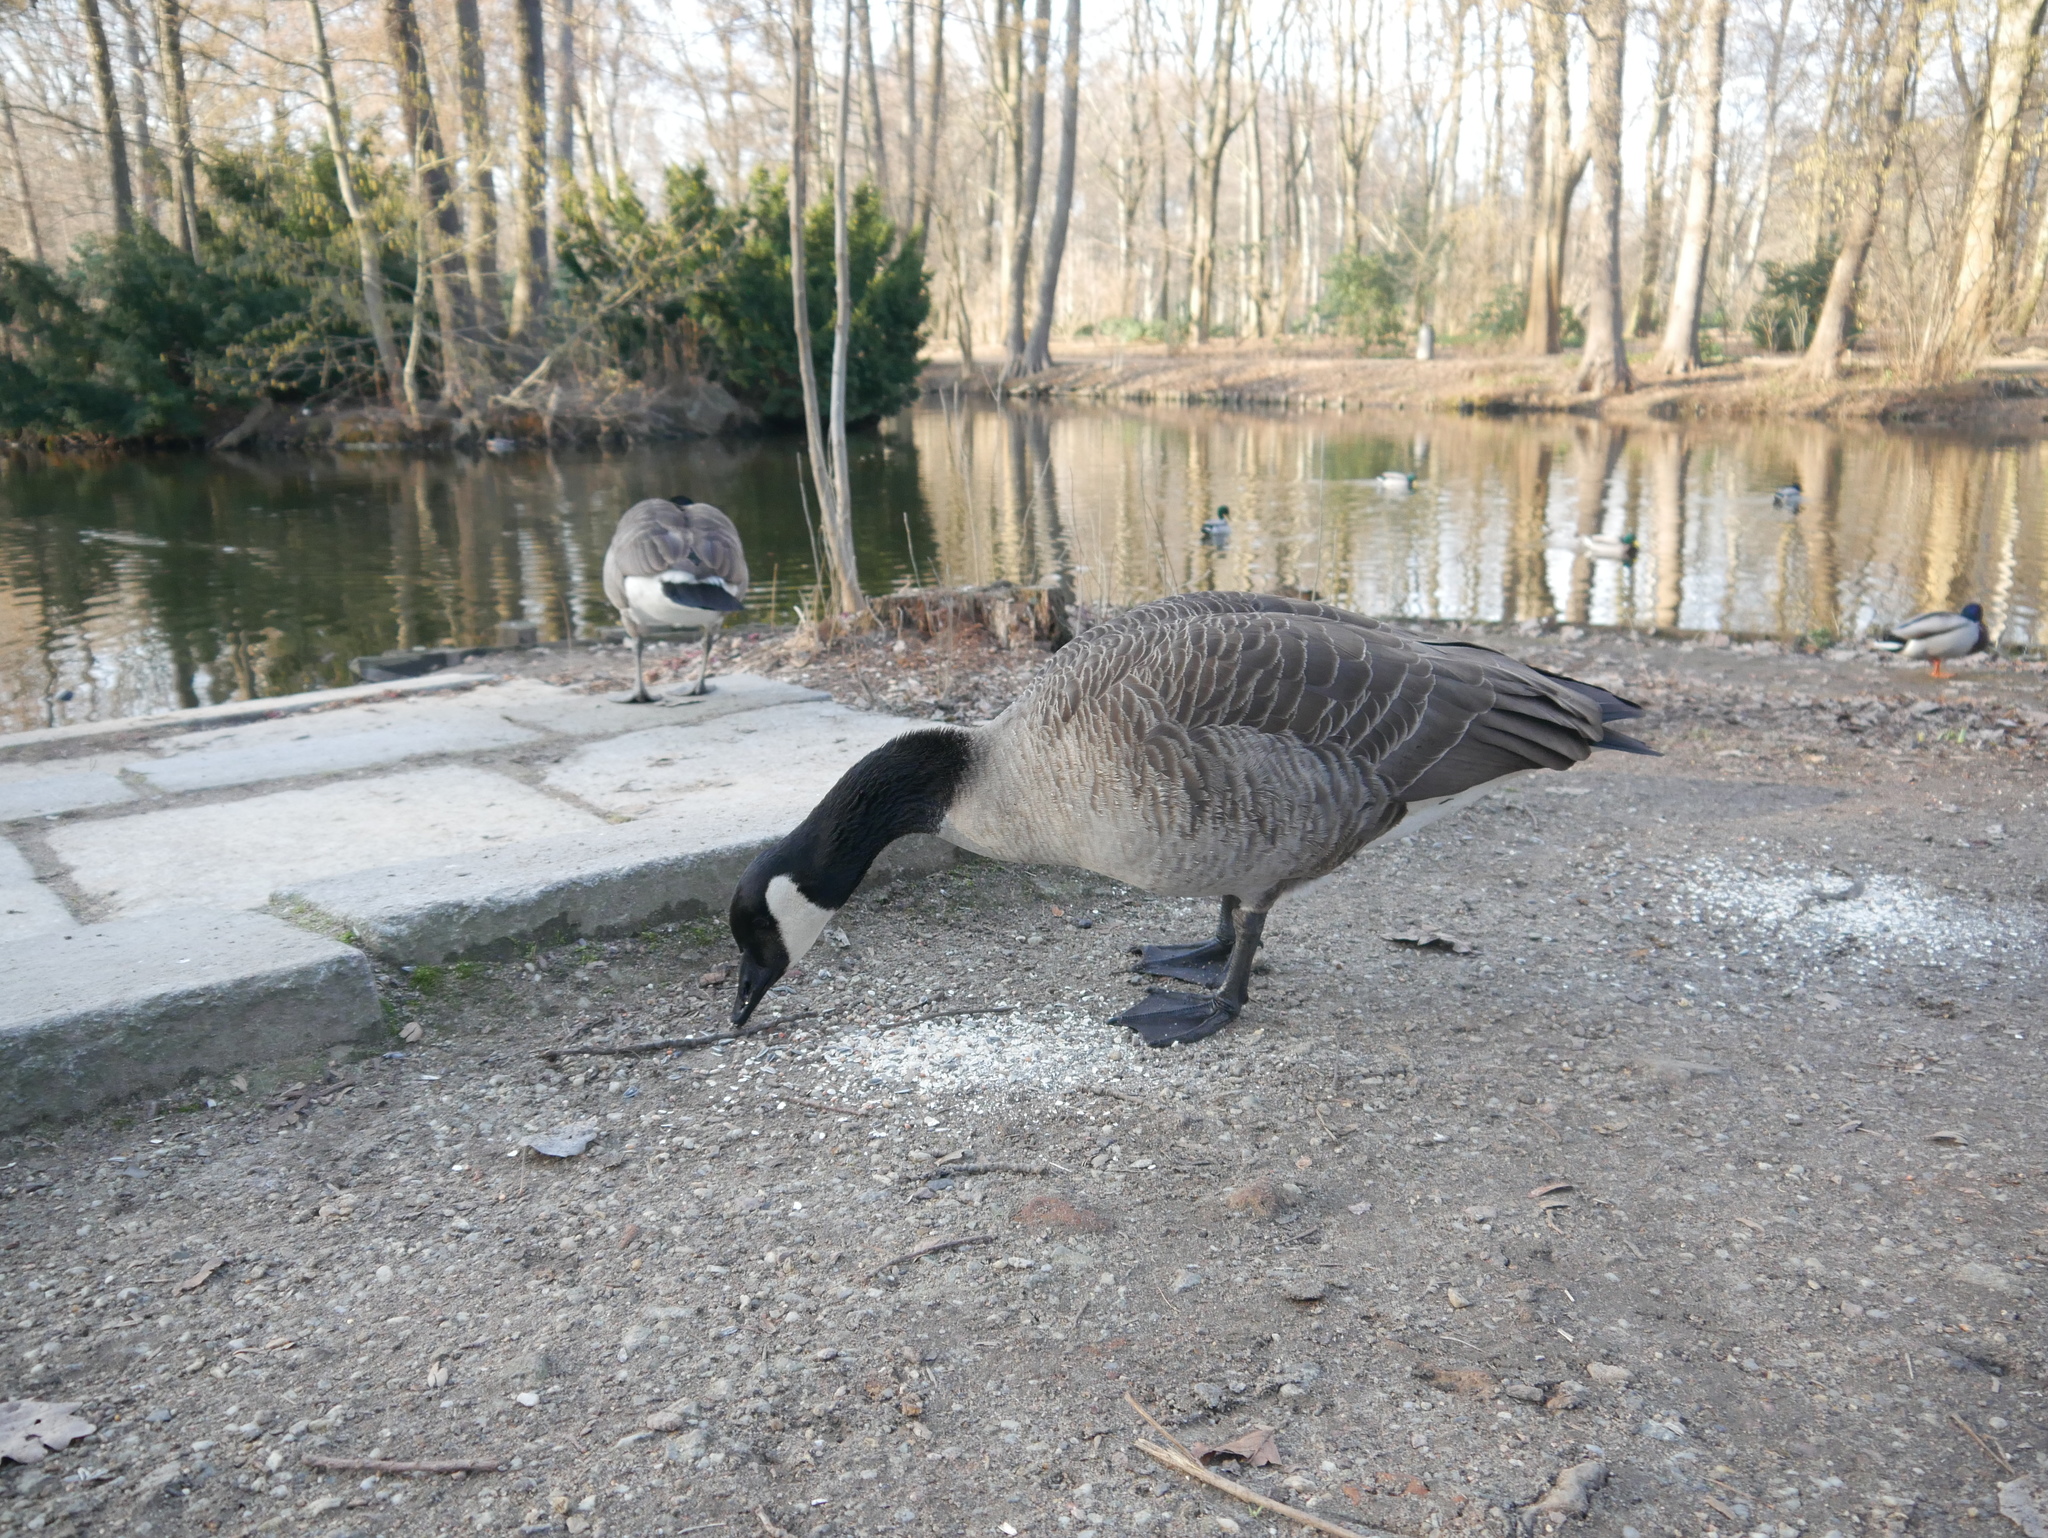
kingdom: Animalia
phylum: Chordata
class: Aves
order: Anseriformes
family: Anatidae
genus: Branta
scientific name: Branta canadensis
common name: Canada goose
